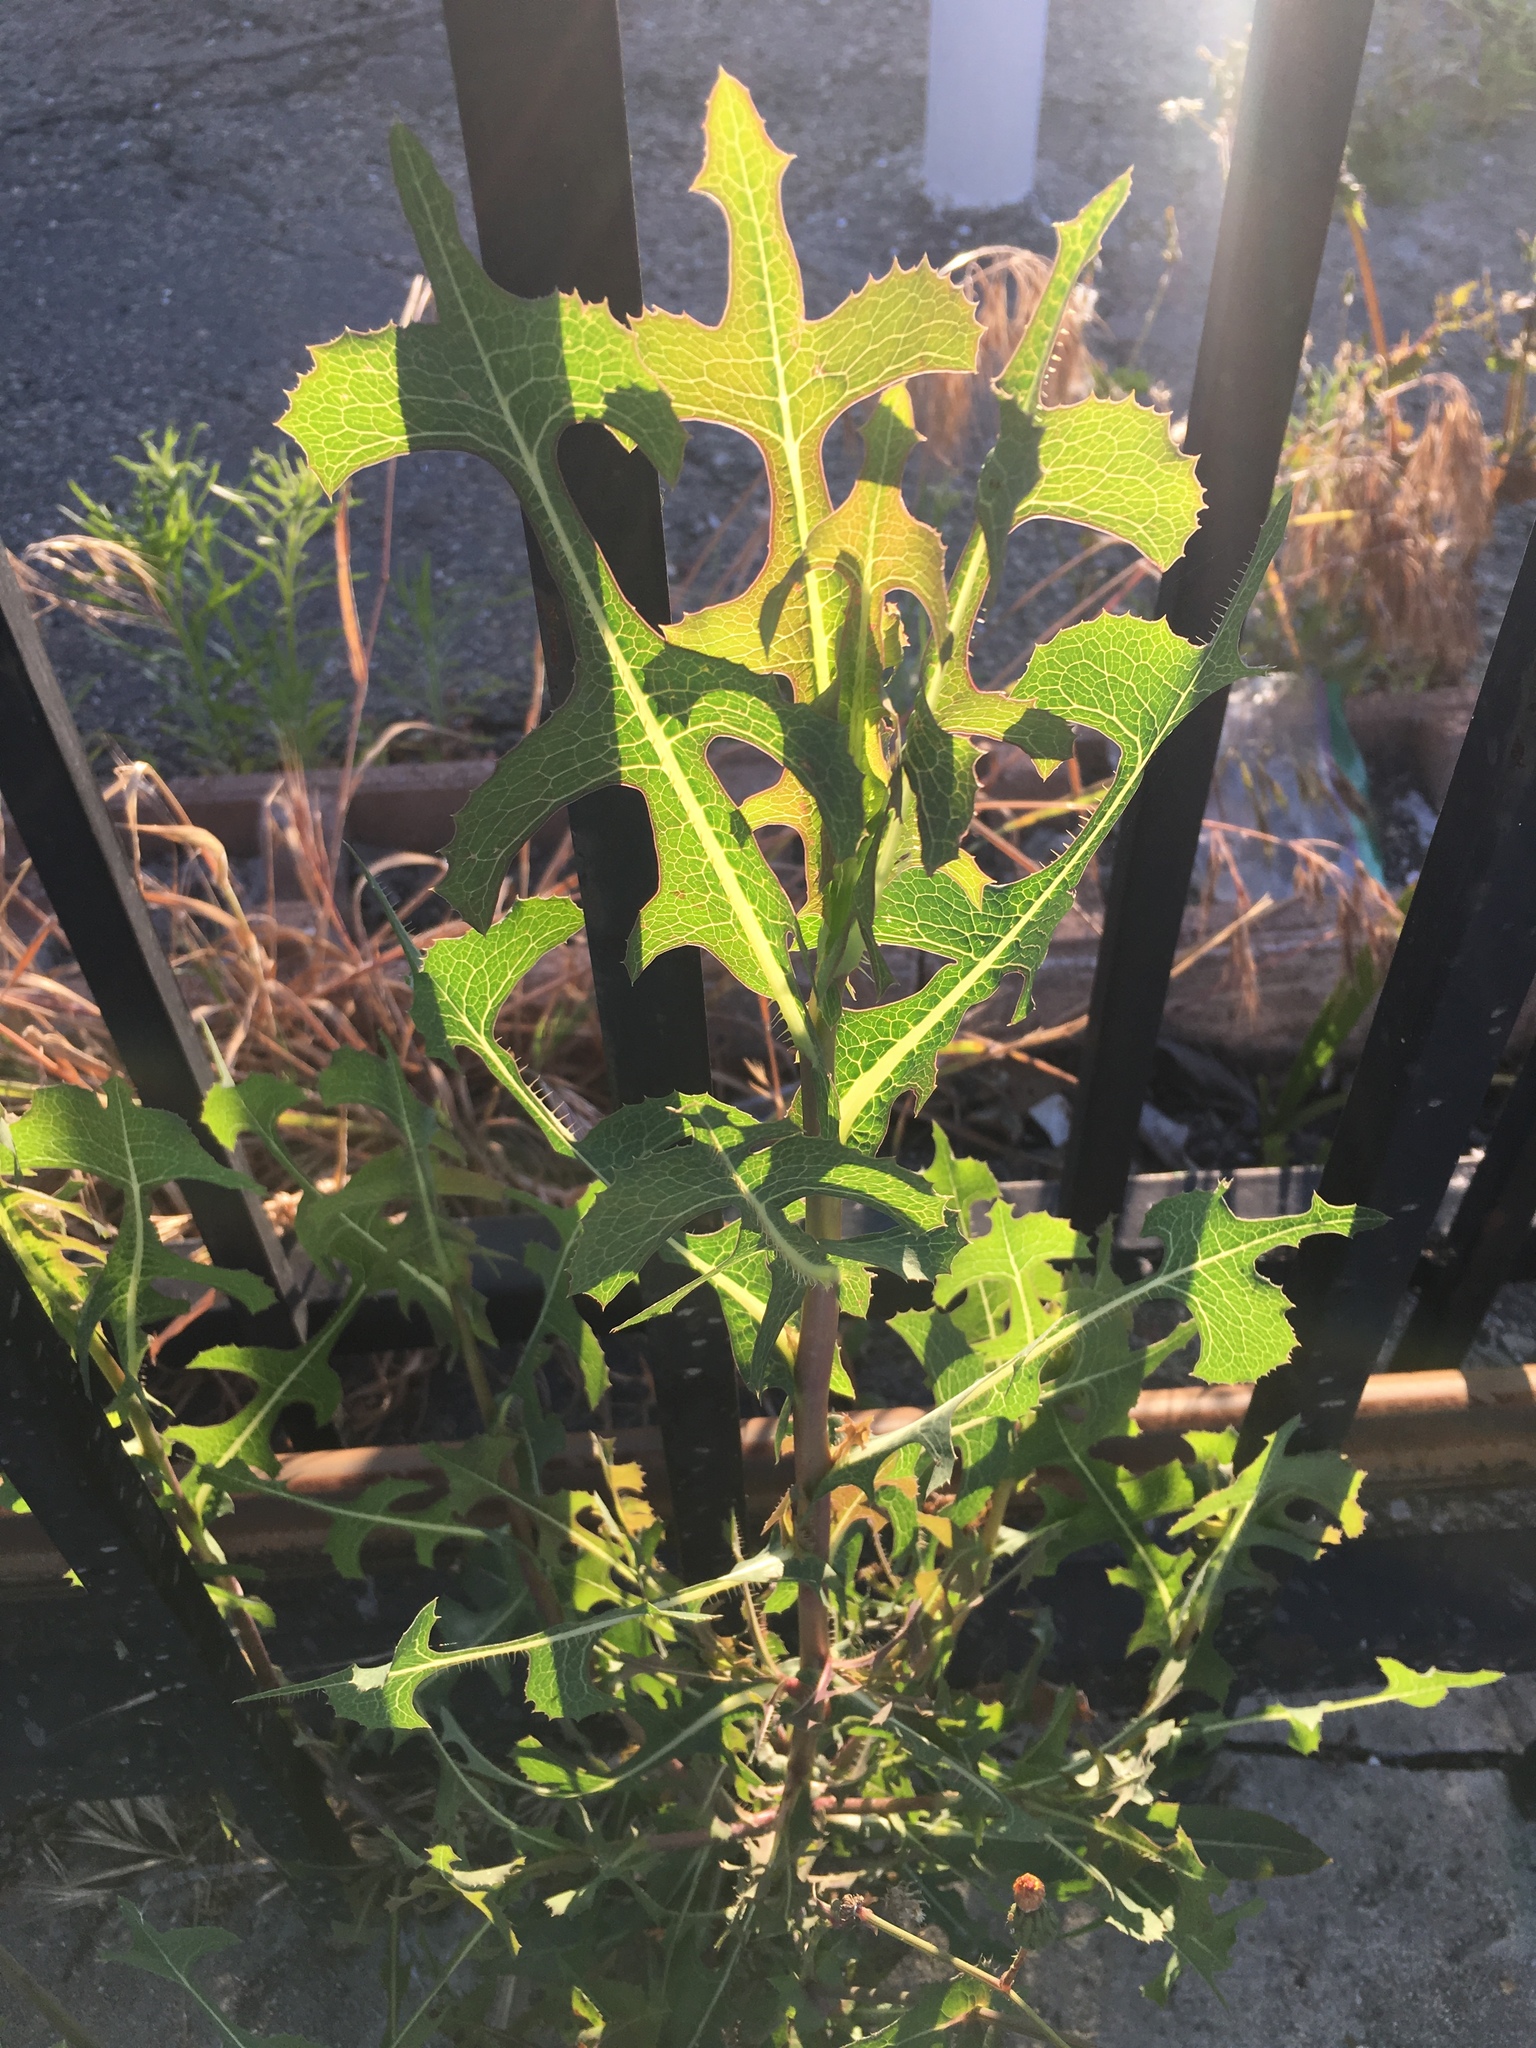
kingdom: Plantae
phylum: Tracheophyta
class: Magnoliopsida
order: Asterales
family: Asteraceae
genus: Lactuca
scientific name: Lactuca serriola
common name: Prickly lettuce
